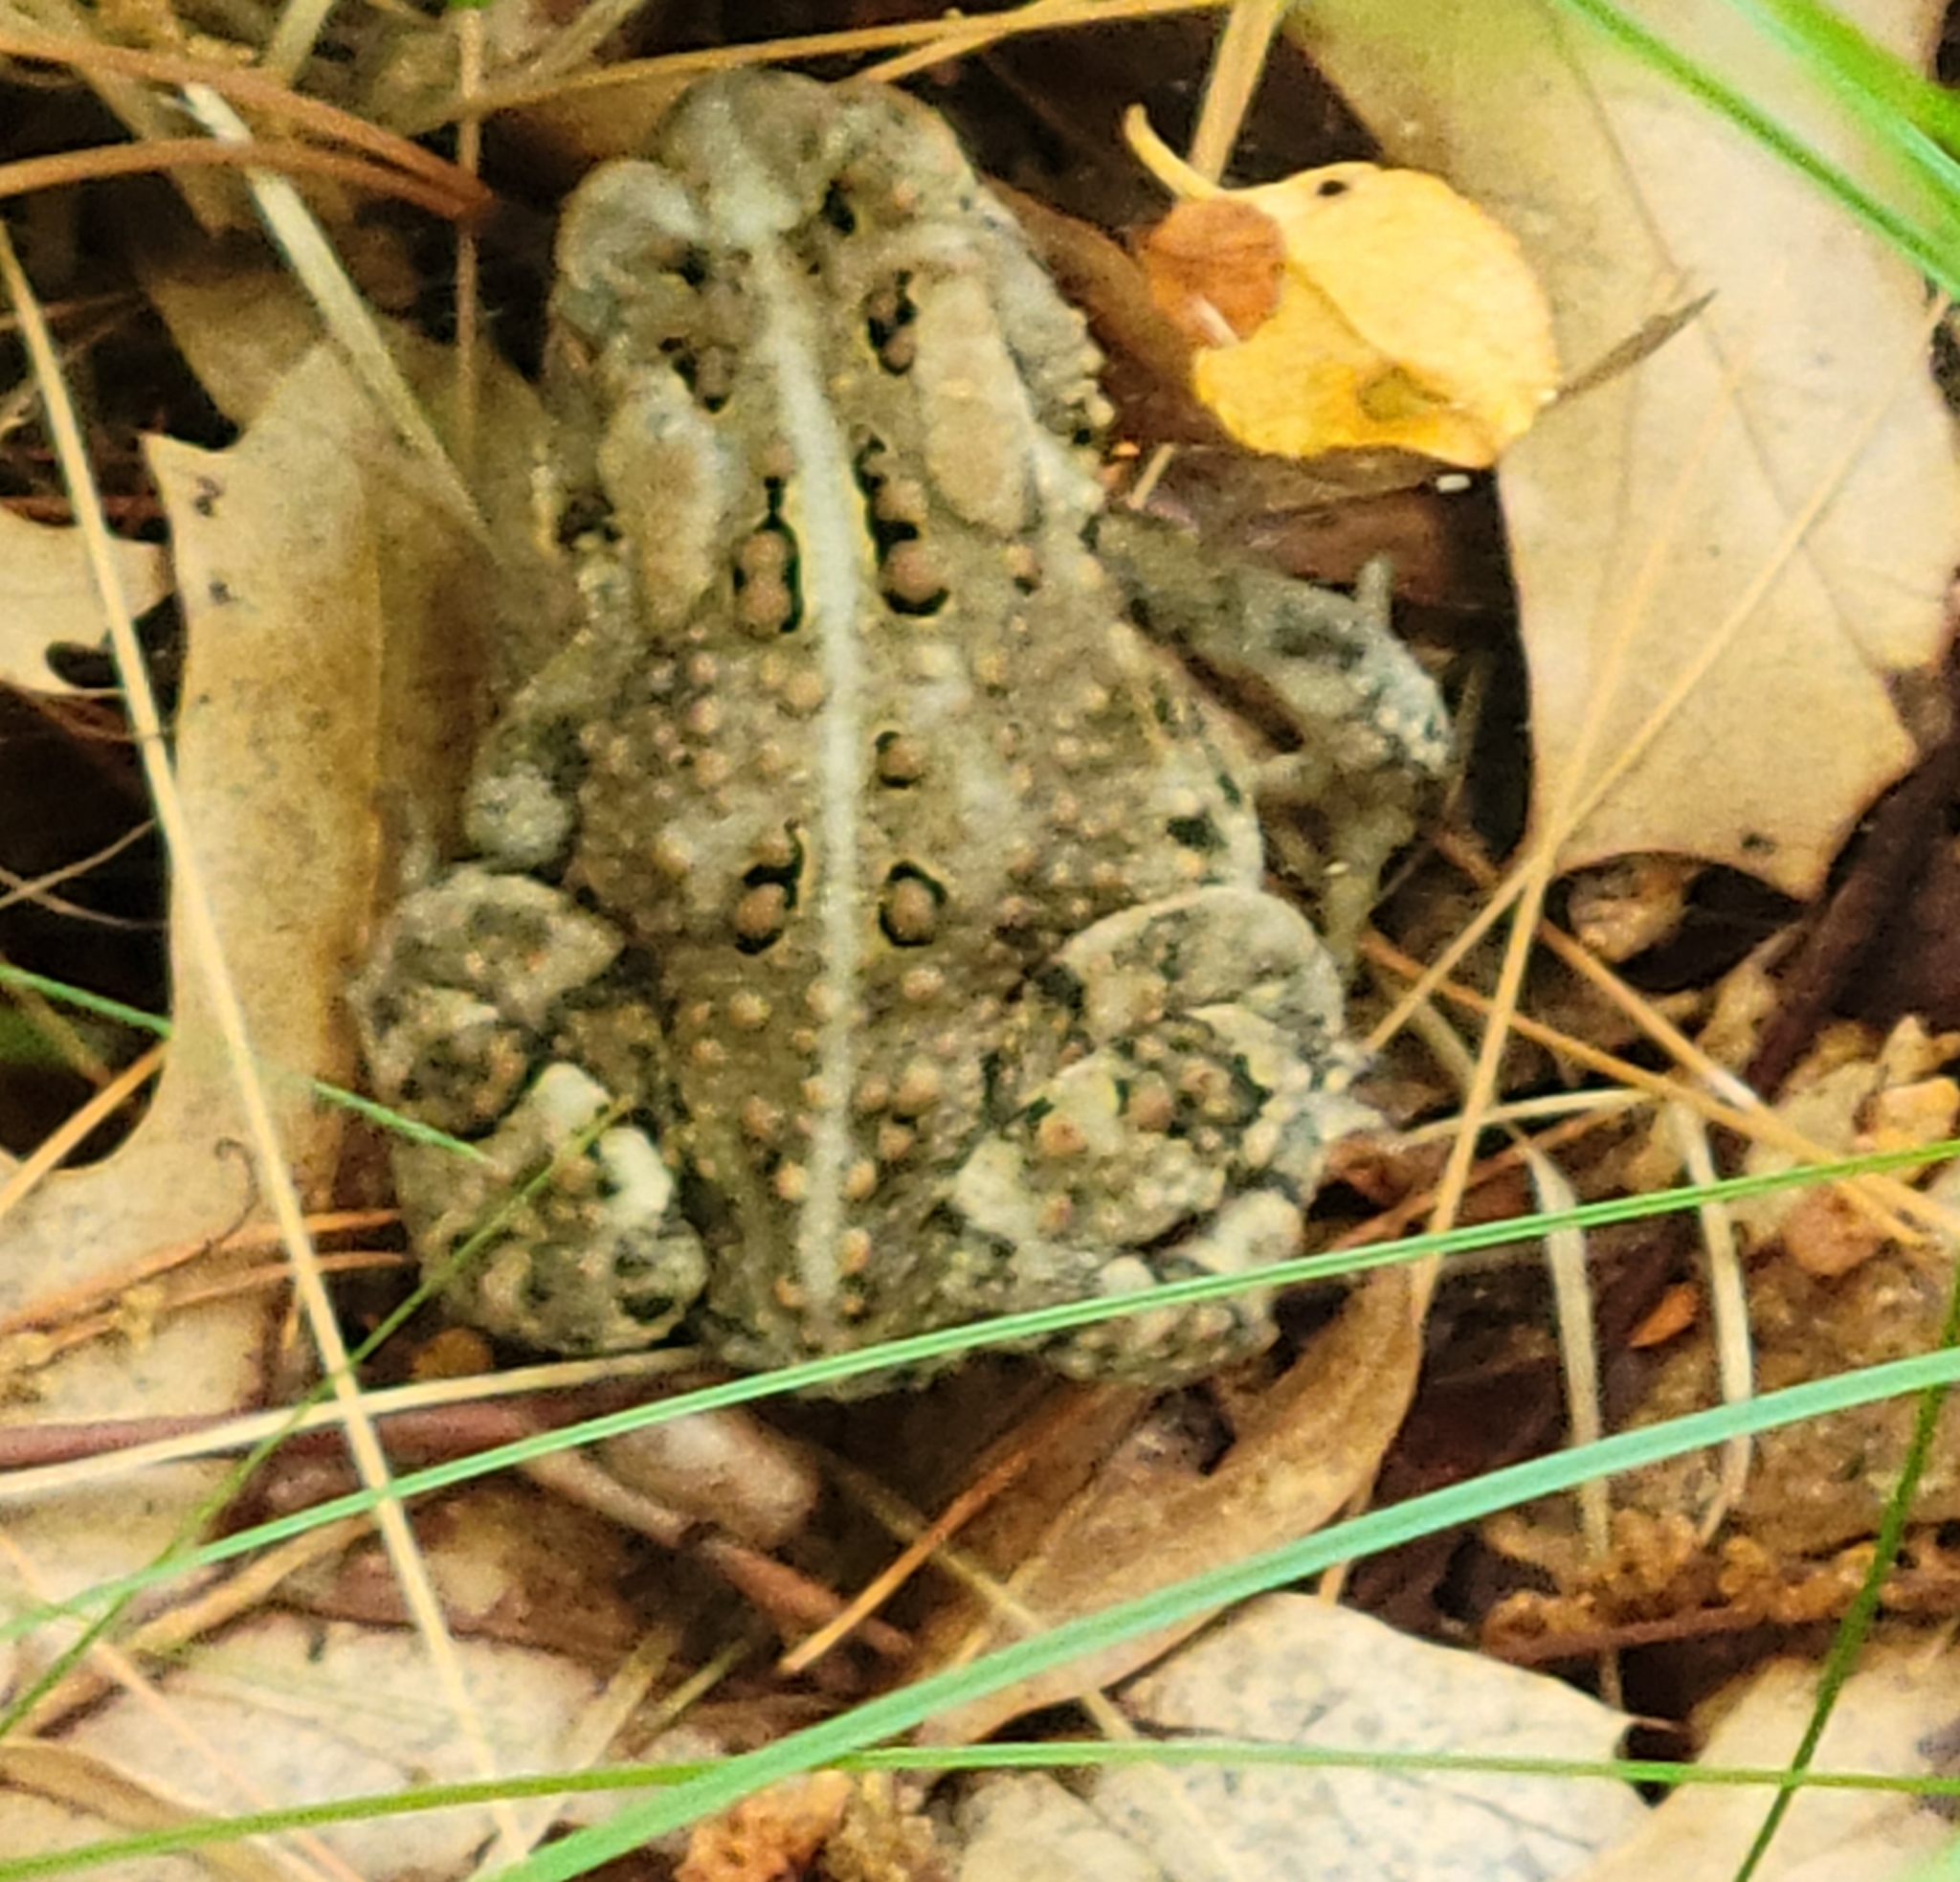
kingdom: Animalia
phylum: Chordata
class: Amphibia
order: Anura
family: Bufonidae
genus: Anaxyrus
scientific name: Anaxyrus americanus
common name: American toad
